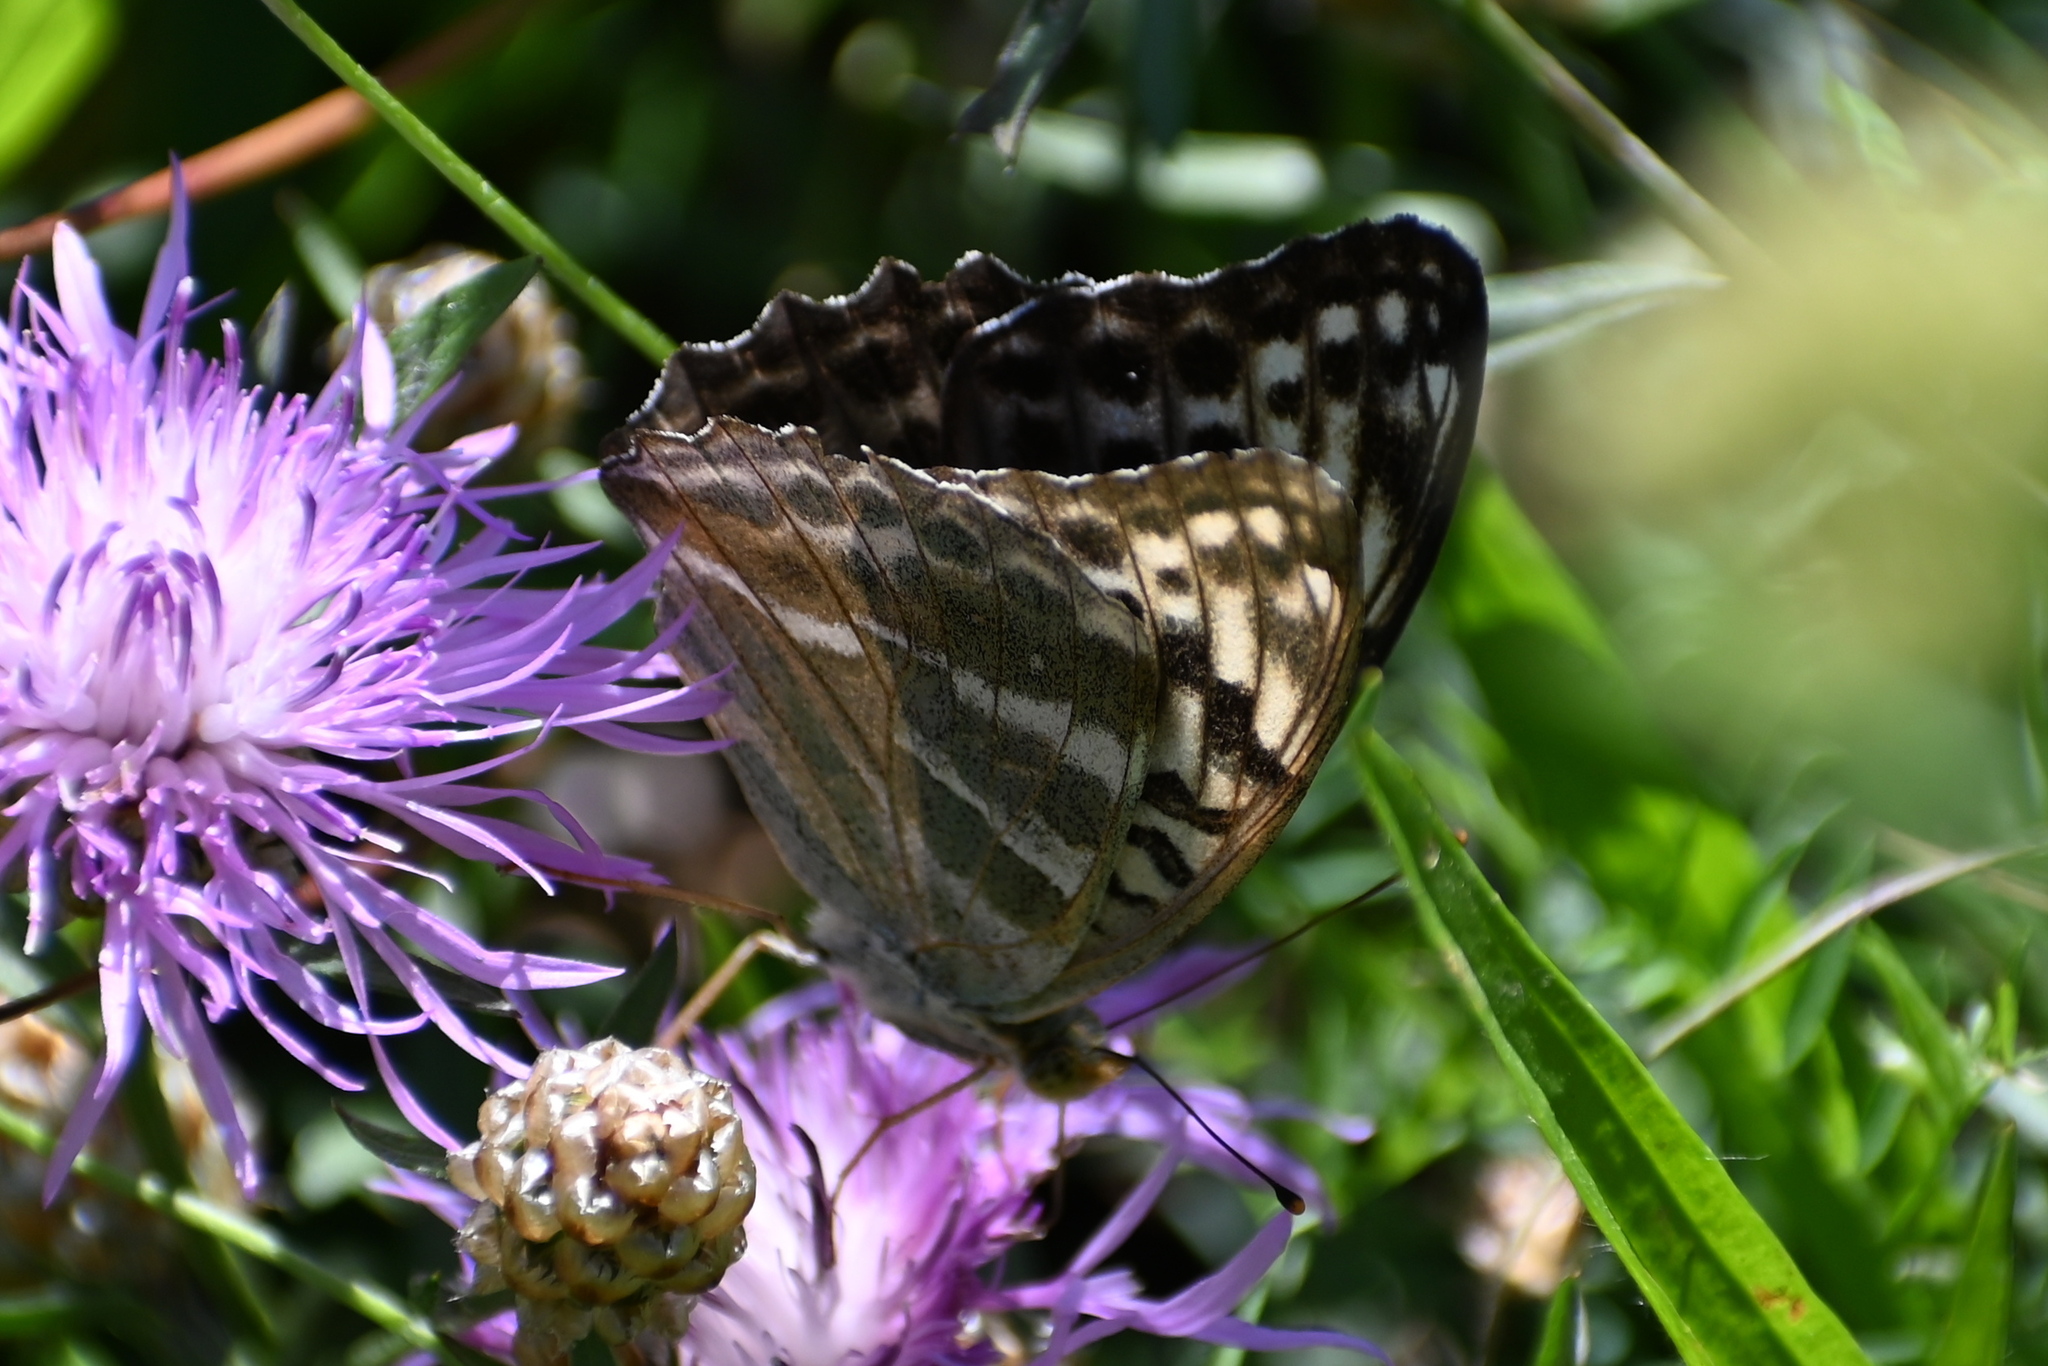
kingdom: Animalia
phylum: Arthropoda
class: Insecta
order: Lepidoptera
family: Nymphalidae
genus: Argynnis
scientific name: Argynnis paphia
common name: Silver-washed fritillary
